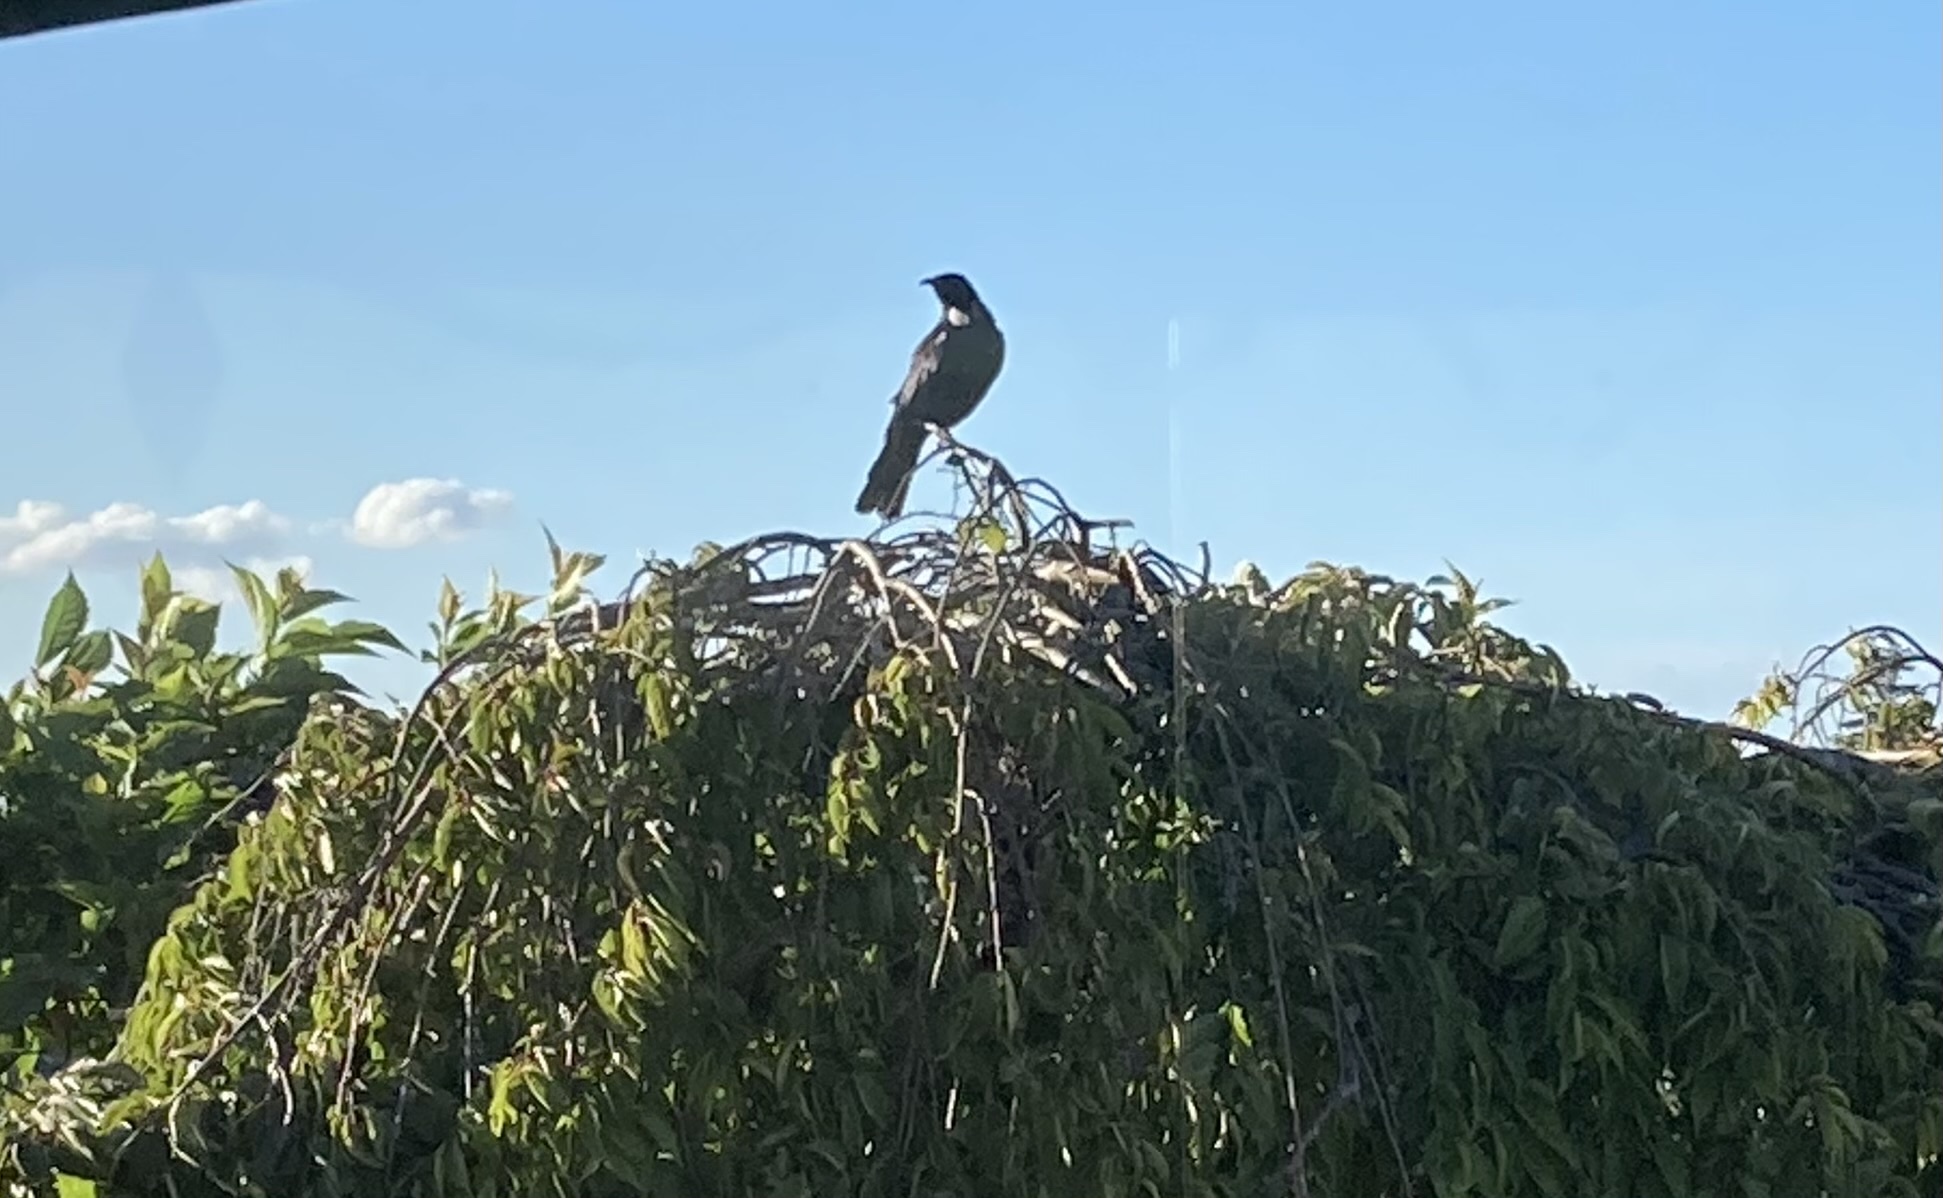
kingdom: Animalia
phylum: Chordata
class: Aves
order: Passeriformes
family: Meliphagidae
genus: Prosthemadera
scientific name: Prosthemadera novaeseelandiae
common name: Tui
